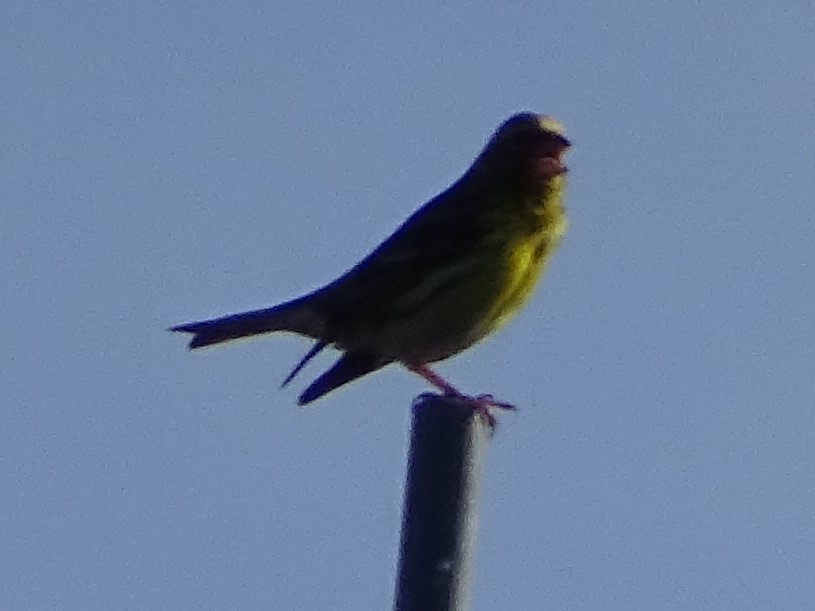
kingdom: Animalia
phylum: Chordata
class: Aves
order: Passeriformes
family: Fringillidae
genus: Serinus
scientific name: Serinus serinus
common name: European serin
